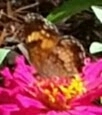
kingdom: Animalia
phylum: Arthropoda
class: Insecta
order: Lepidoptera
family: Nymphalidae
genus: Chlosyne
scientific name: Chlosyne nycteis
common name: Silvery checkerspot
